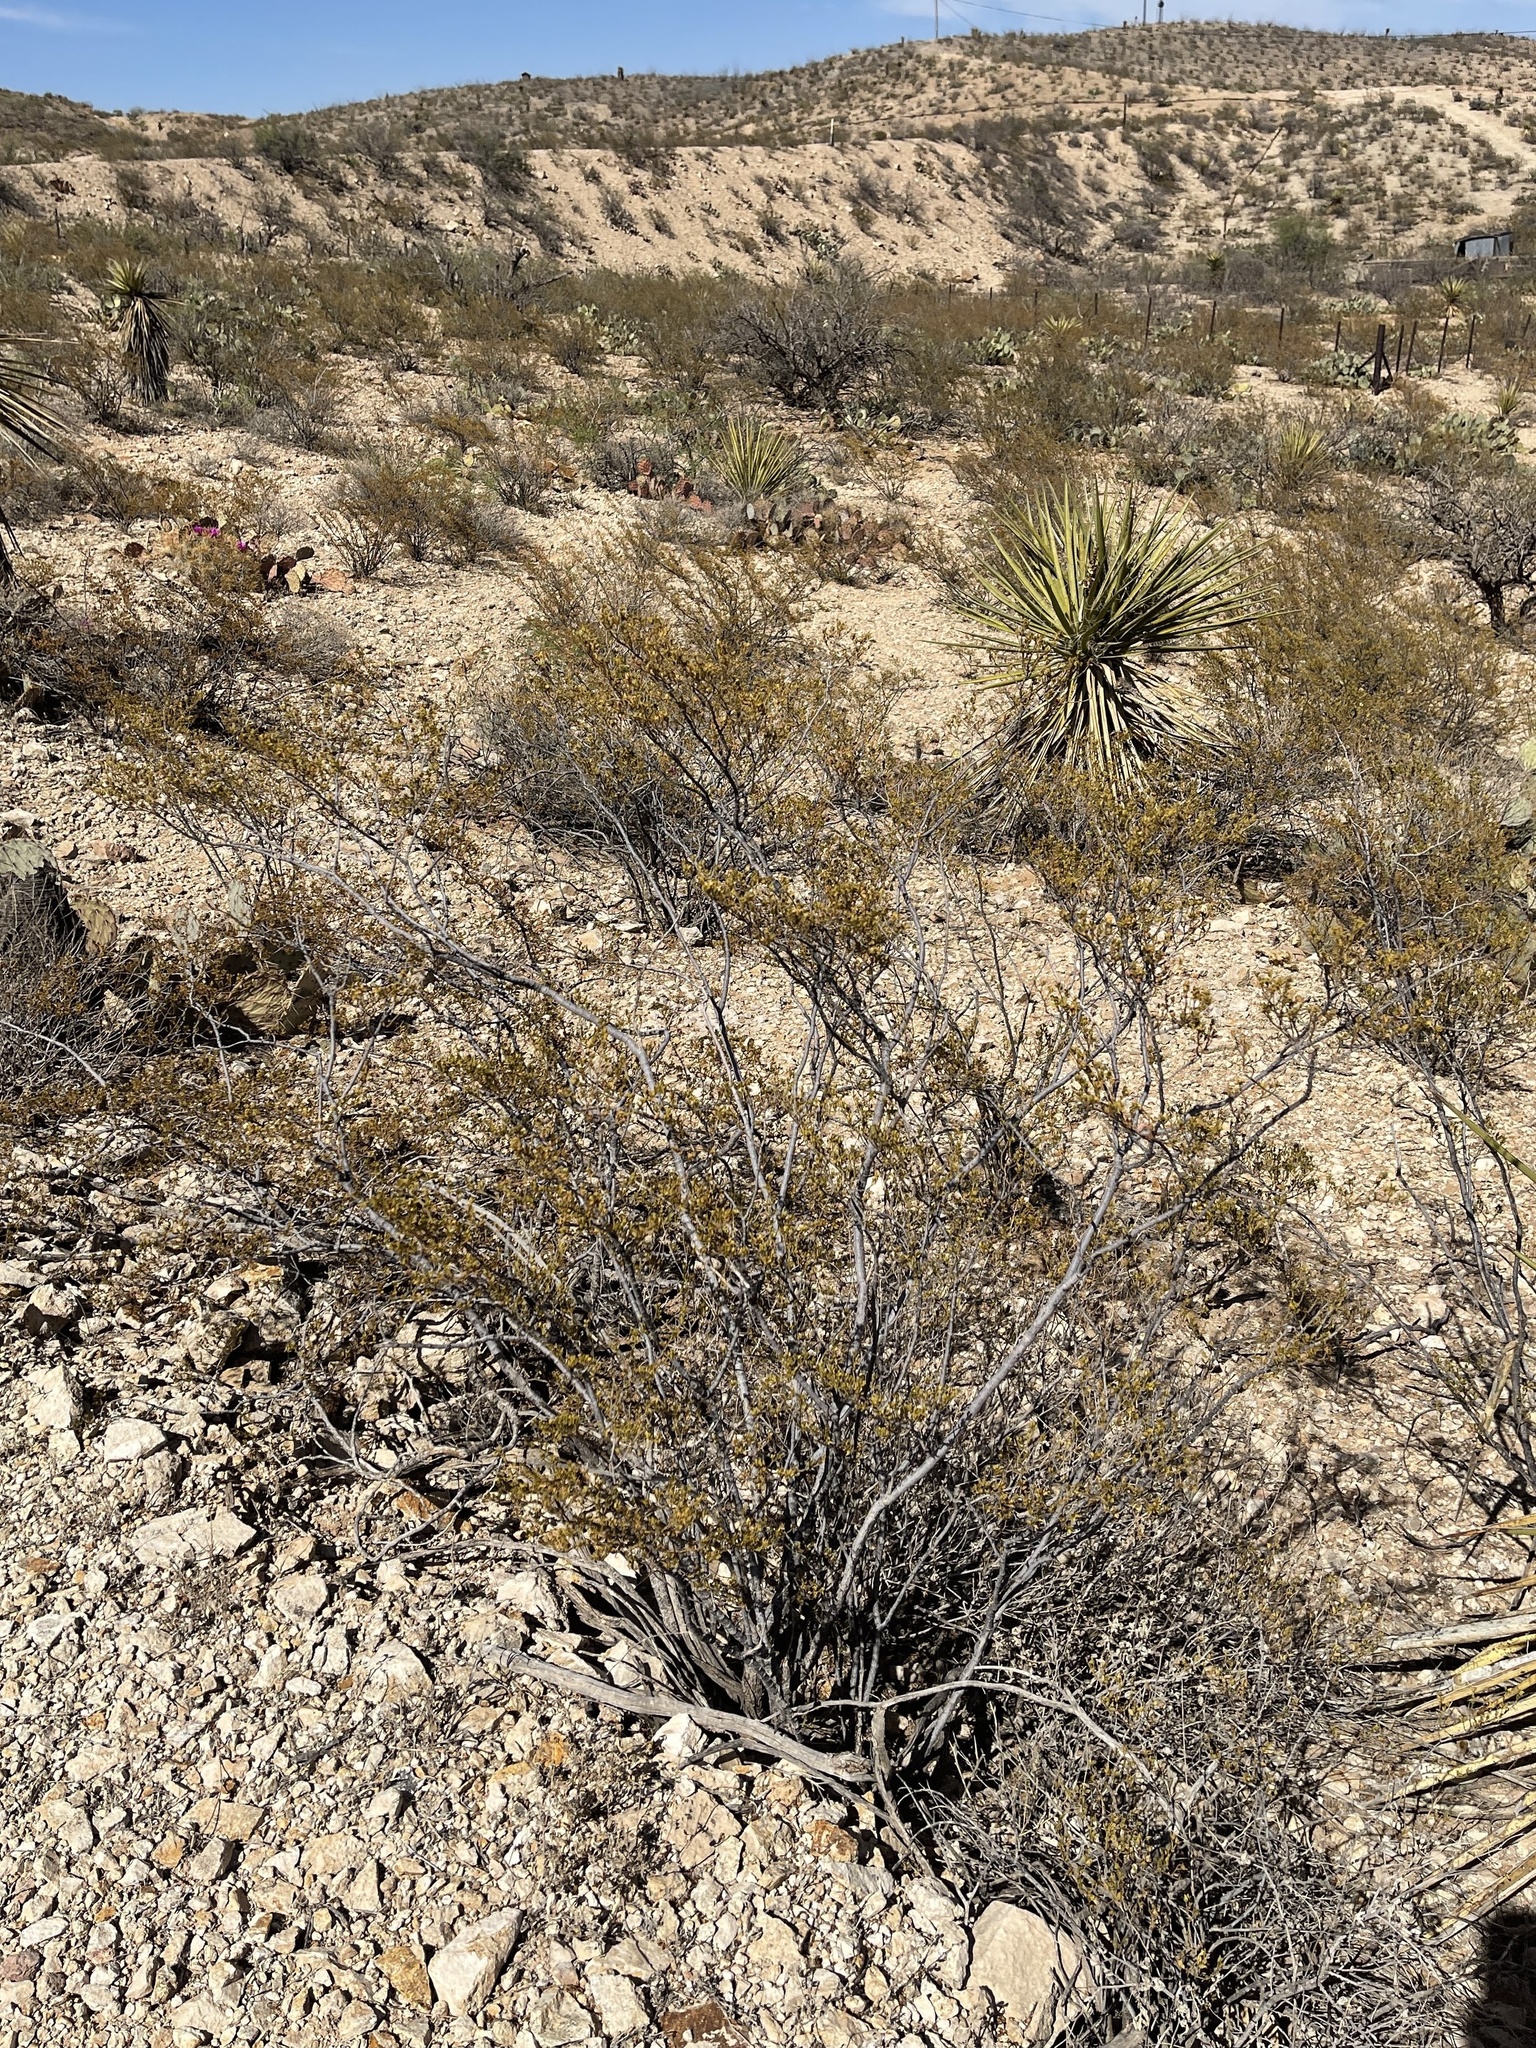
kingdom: Plantae
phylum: Tracheophyta
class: Magnoliopsida
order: Zygophyllales
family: Zygophyllaceae
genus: Larrea
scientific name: Larrea tridentata
